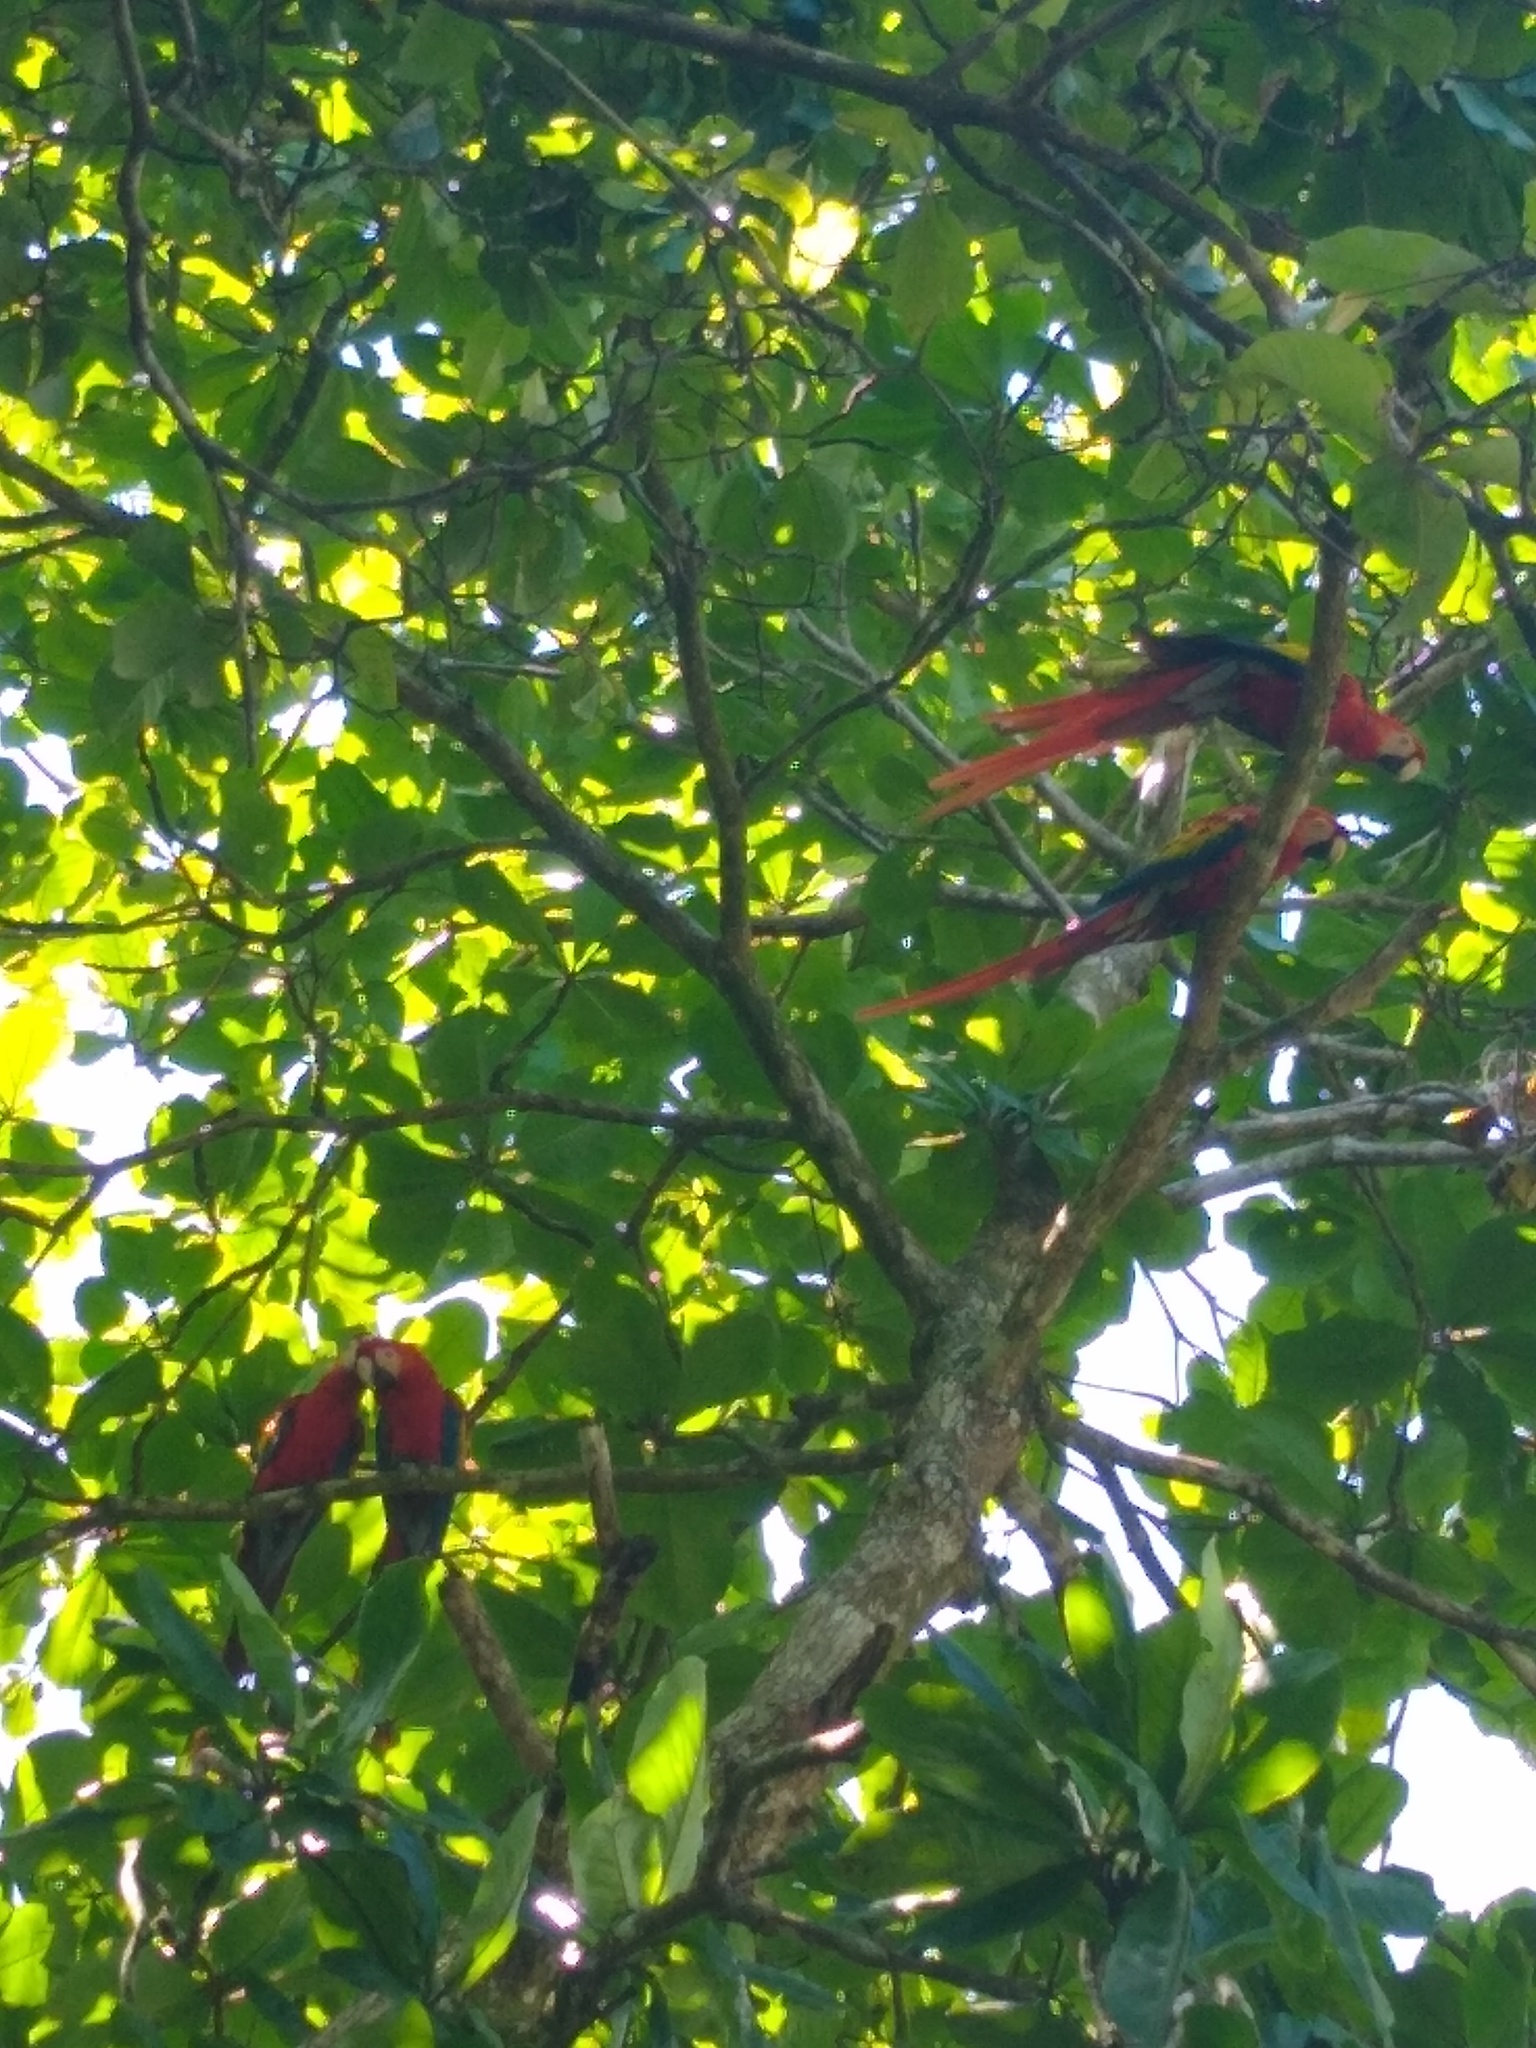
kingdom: Animalia
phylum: Chordata
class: Aves
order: Psittaciformes
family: Psittacidae
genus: Ara
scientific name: Ara macao
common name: Scarlet macaw
